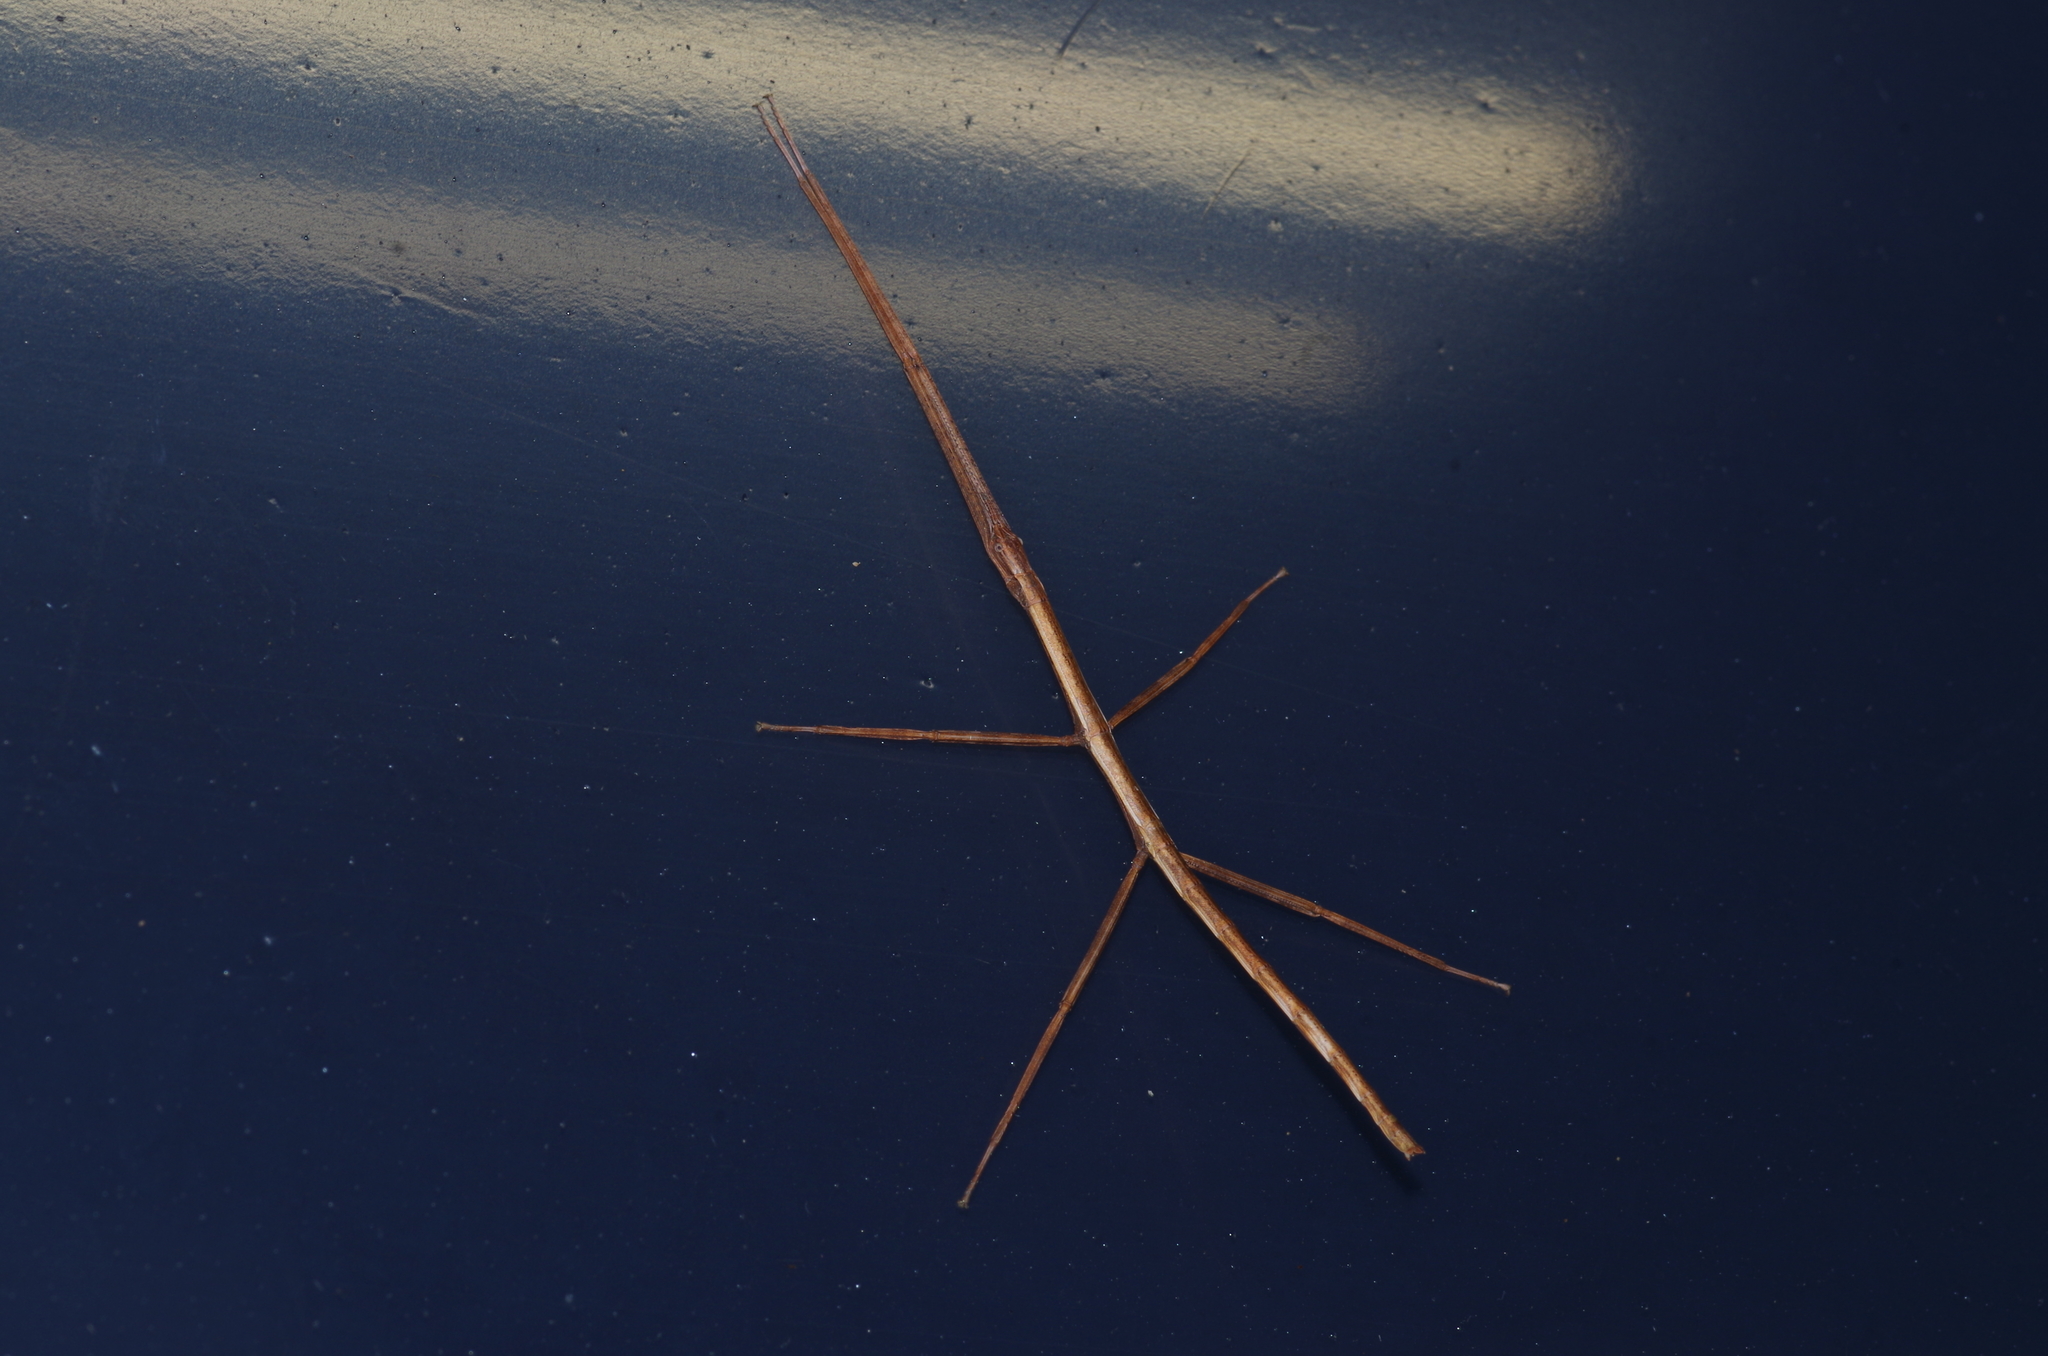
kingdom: Animalia
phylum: Arthropoda
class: Insecta
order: Phasmida
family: Phasmatidae
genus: Entoria
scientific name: Entoria miyakoensis
